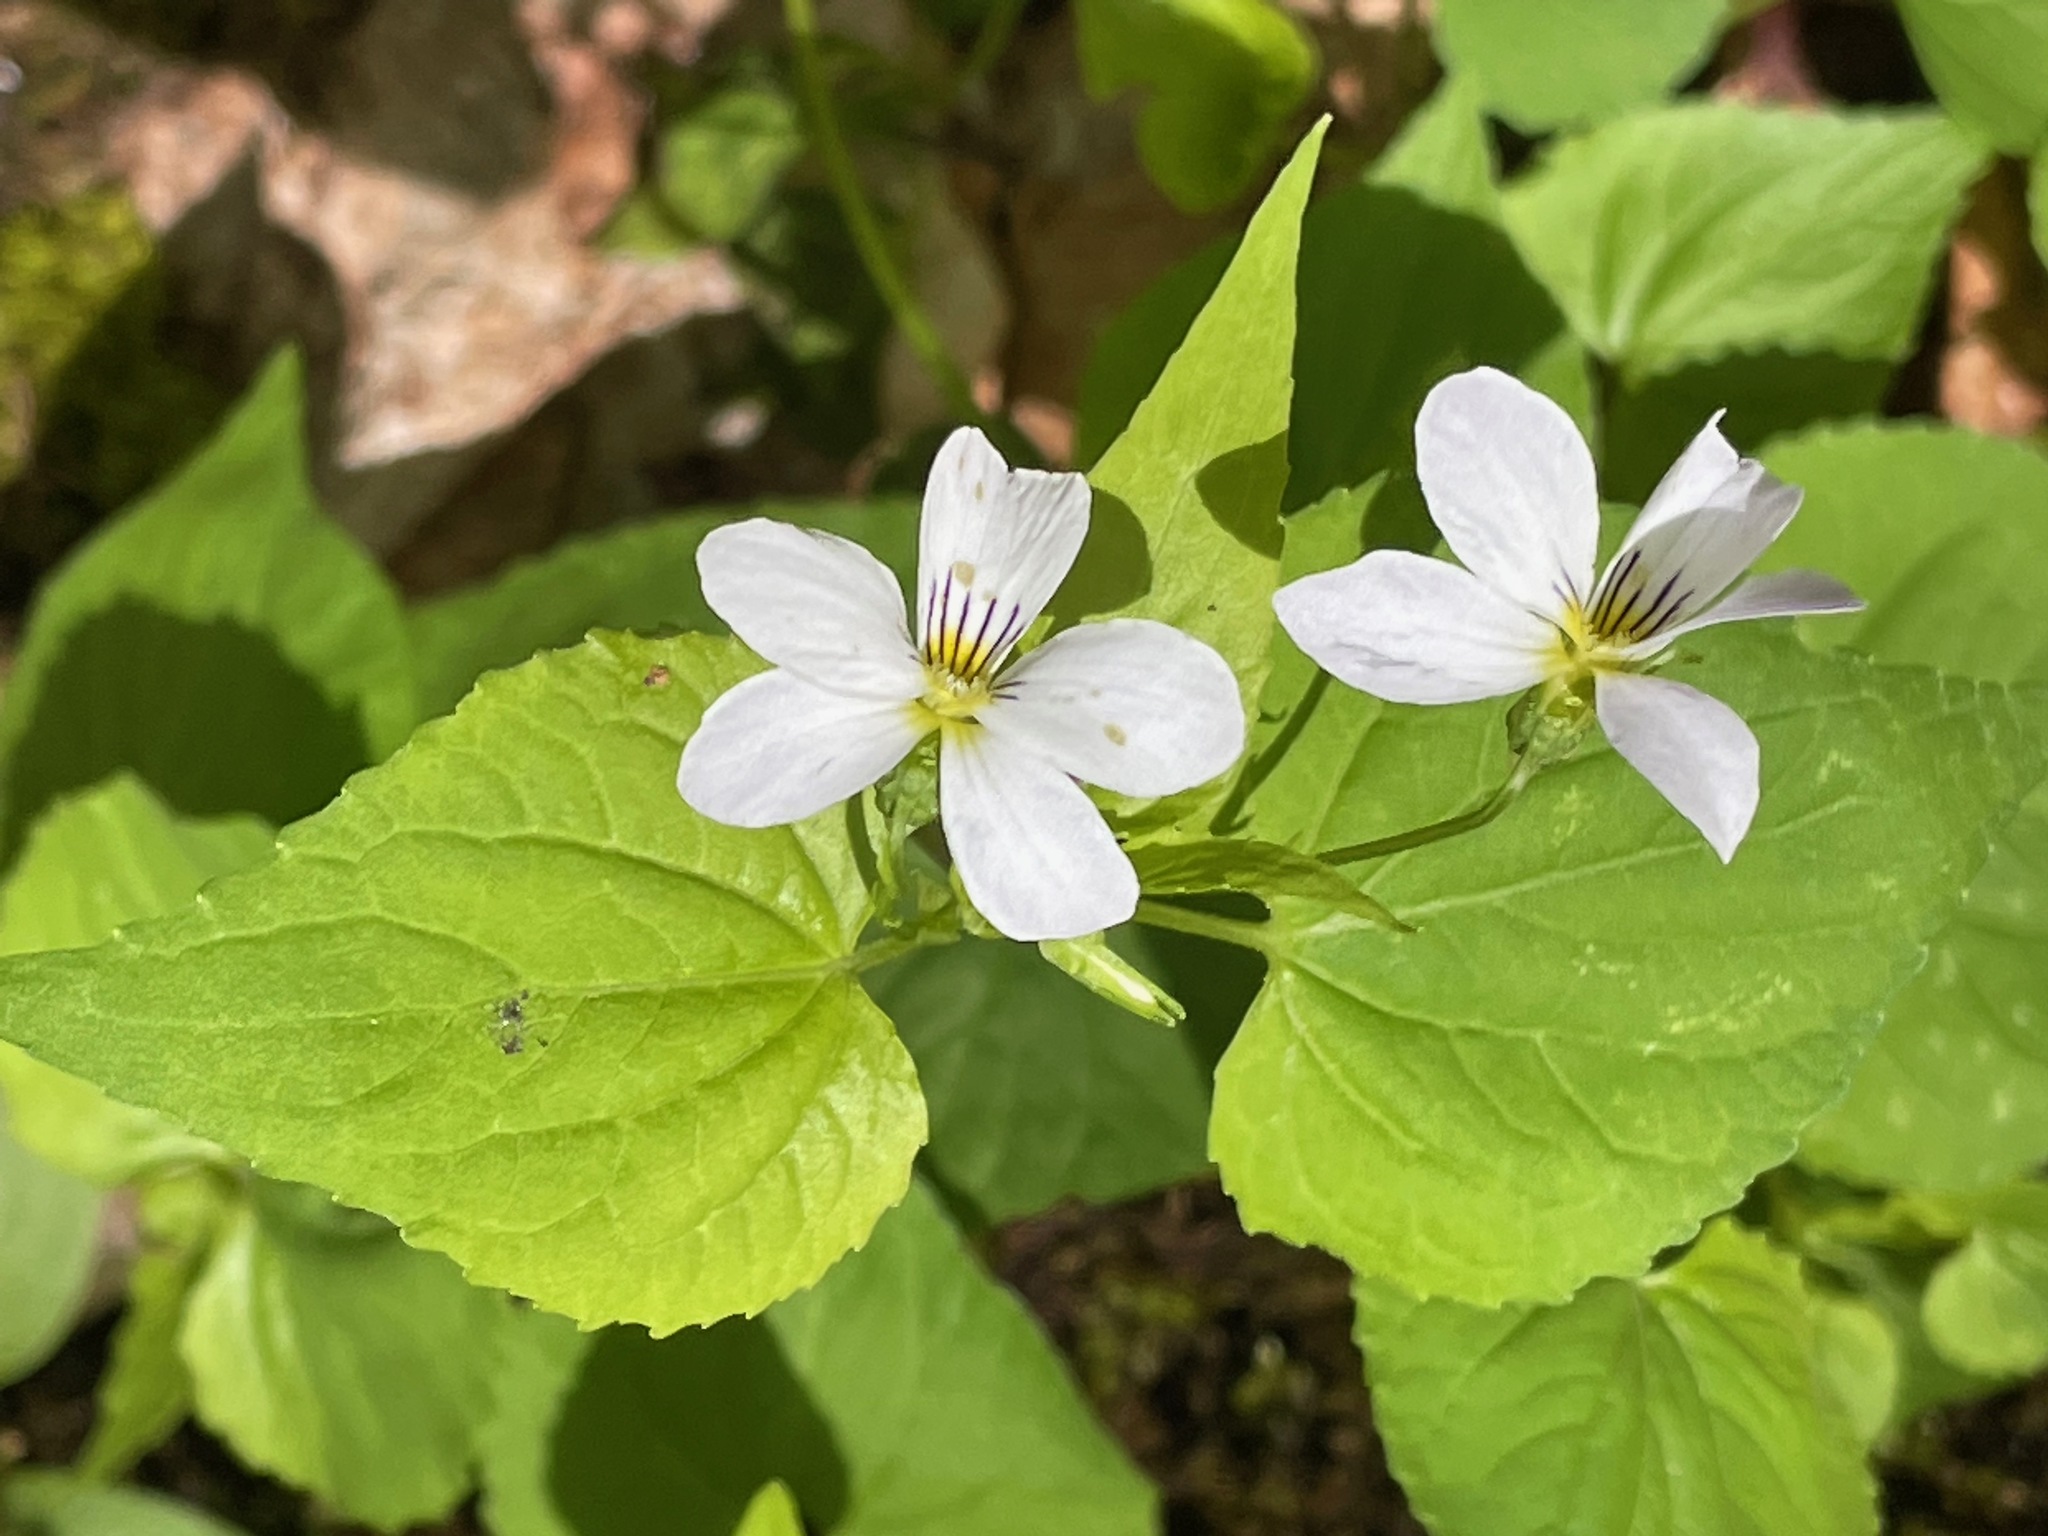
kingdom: Plantae
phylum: Tracheophyta
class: Magnoliopsida
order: Malpighiales
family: Violaceae
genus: Viola
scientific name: Viola canadensis
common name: Canada violet
